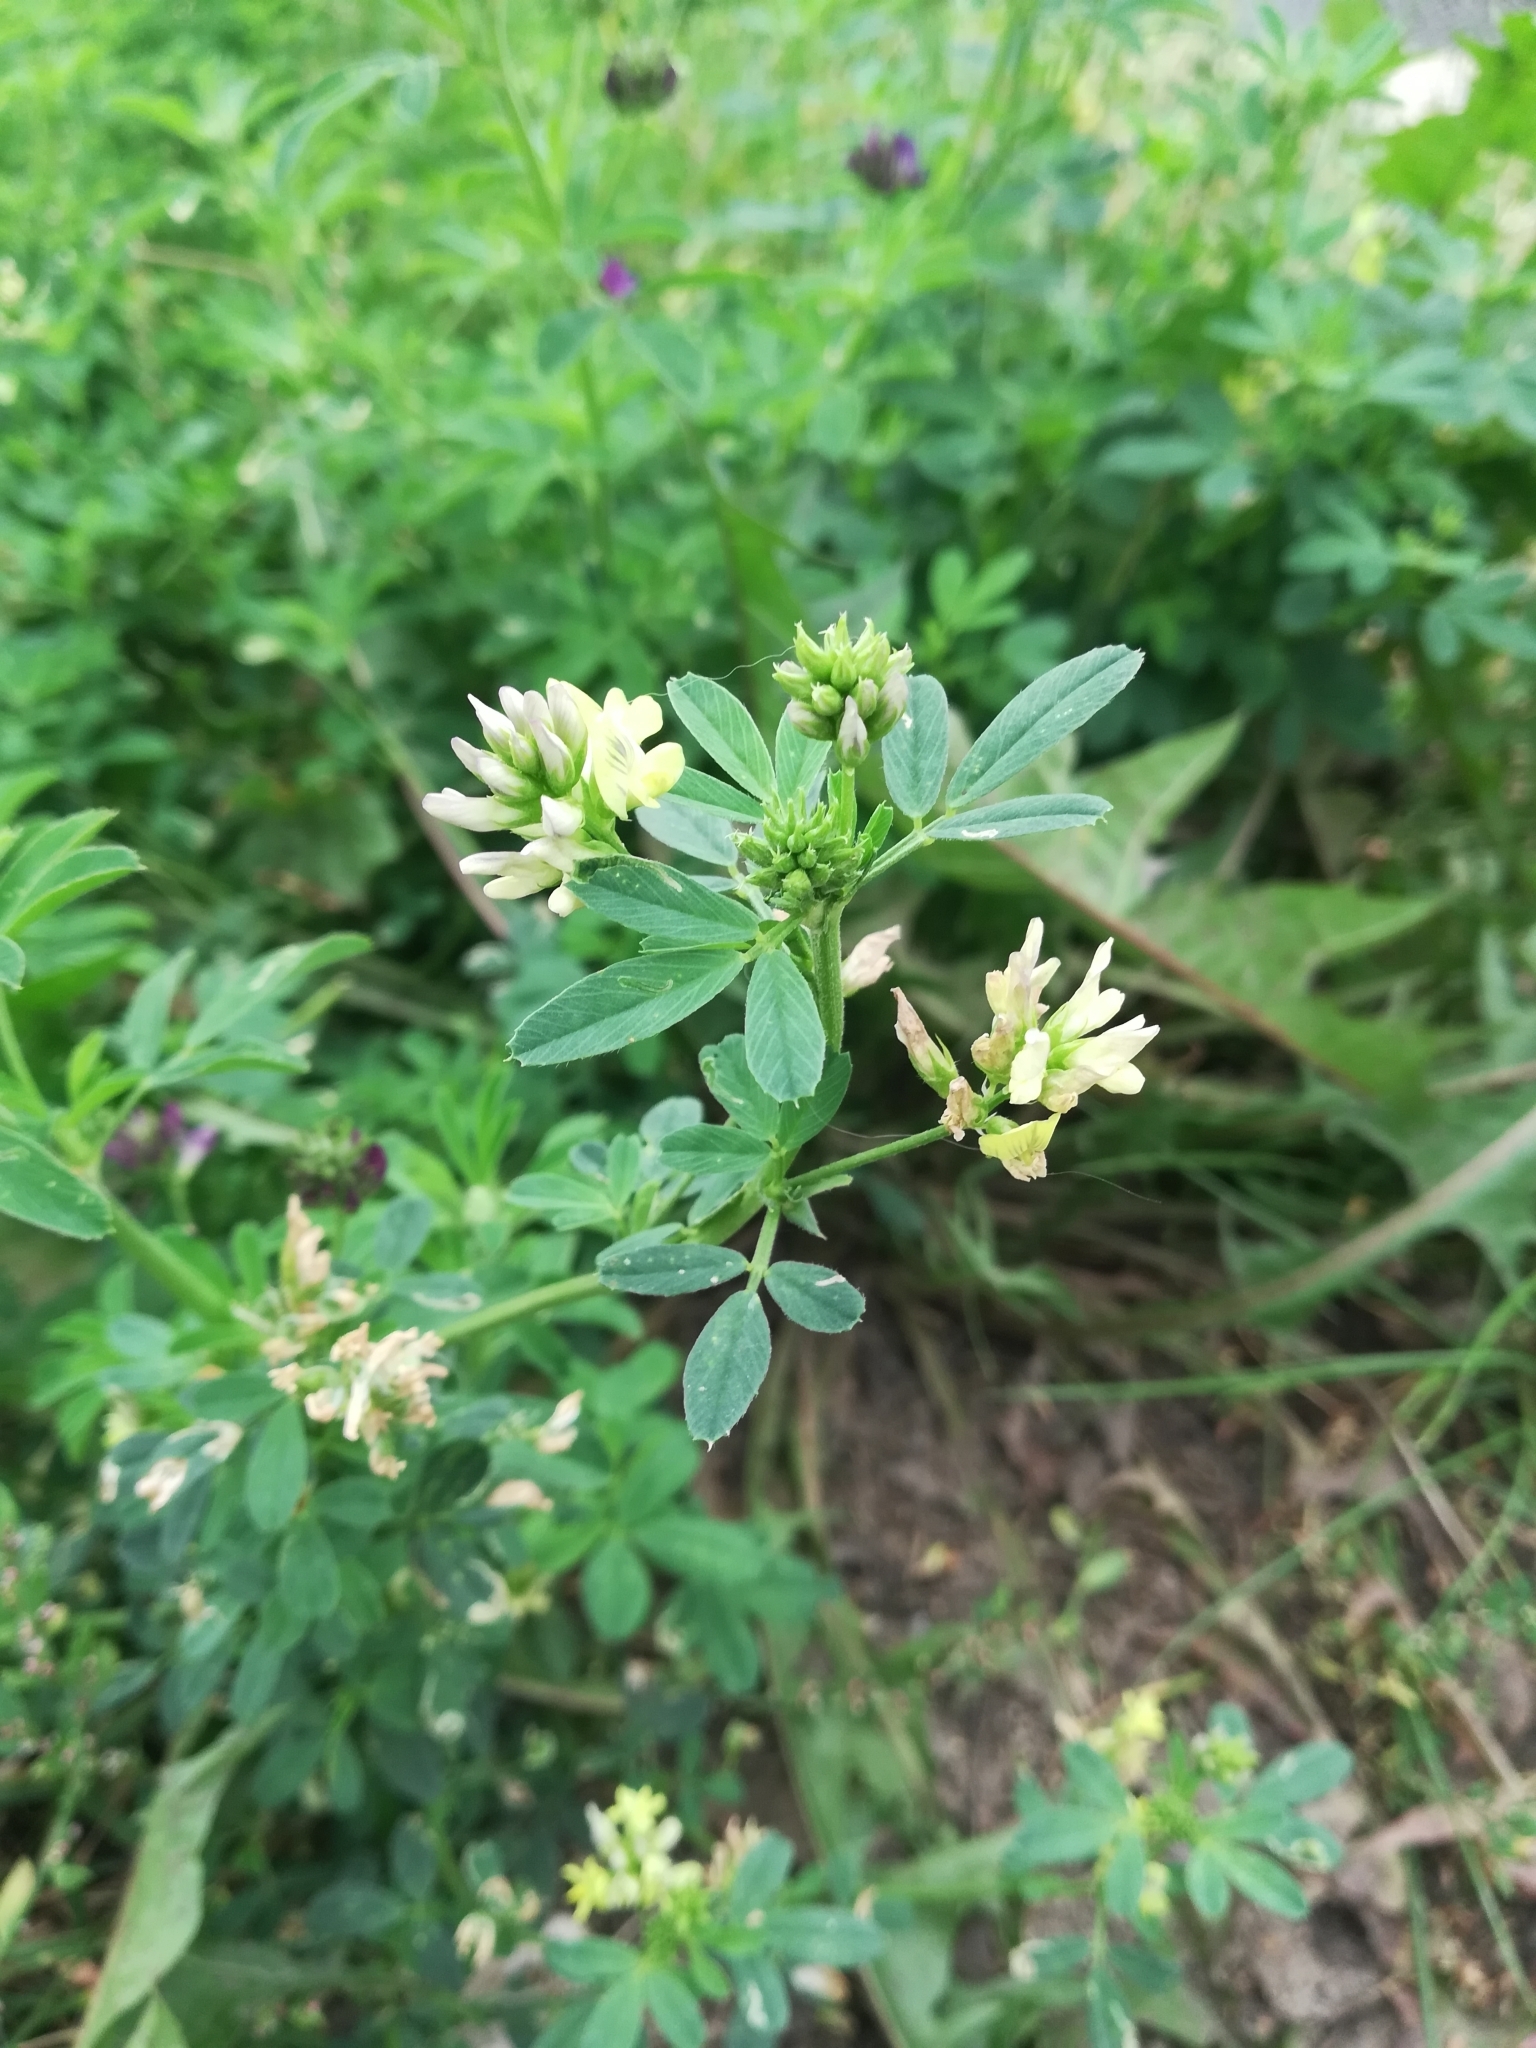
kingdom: Plantae
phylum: Tracheophyta
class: Magnoliopsida
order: Fabales
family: Fabaceae
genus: Medicago
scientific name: Medicago varia
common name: Sand lucerne
